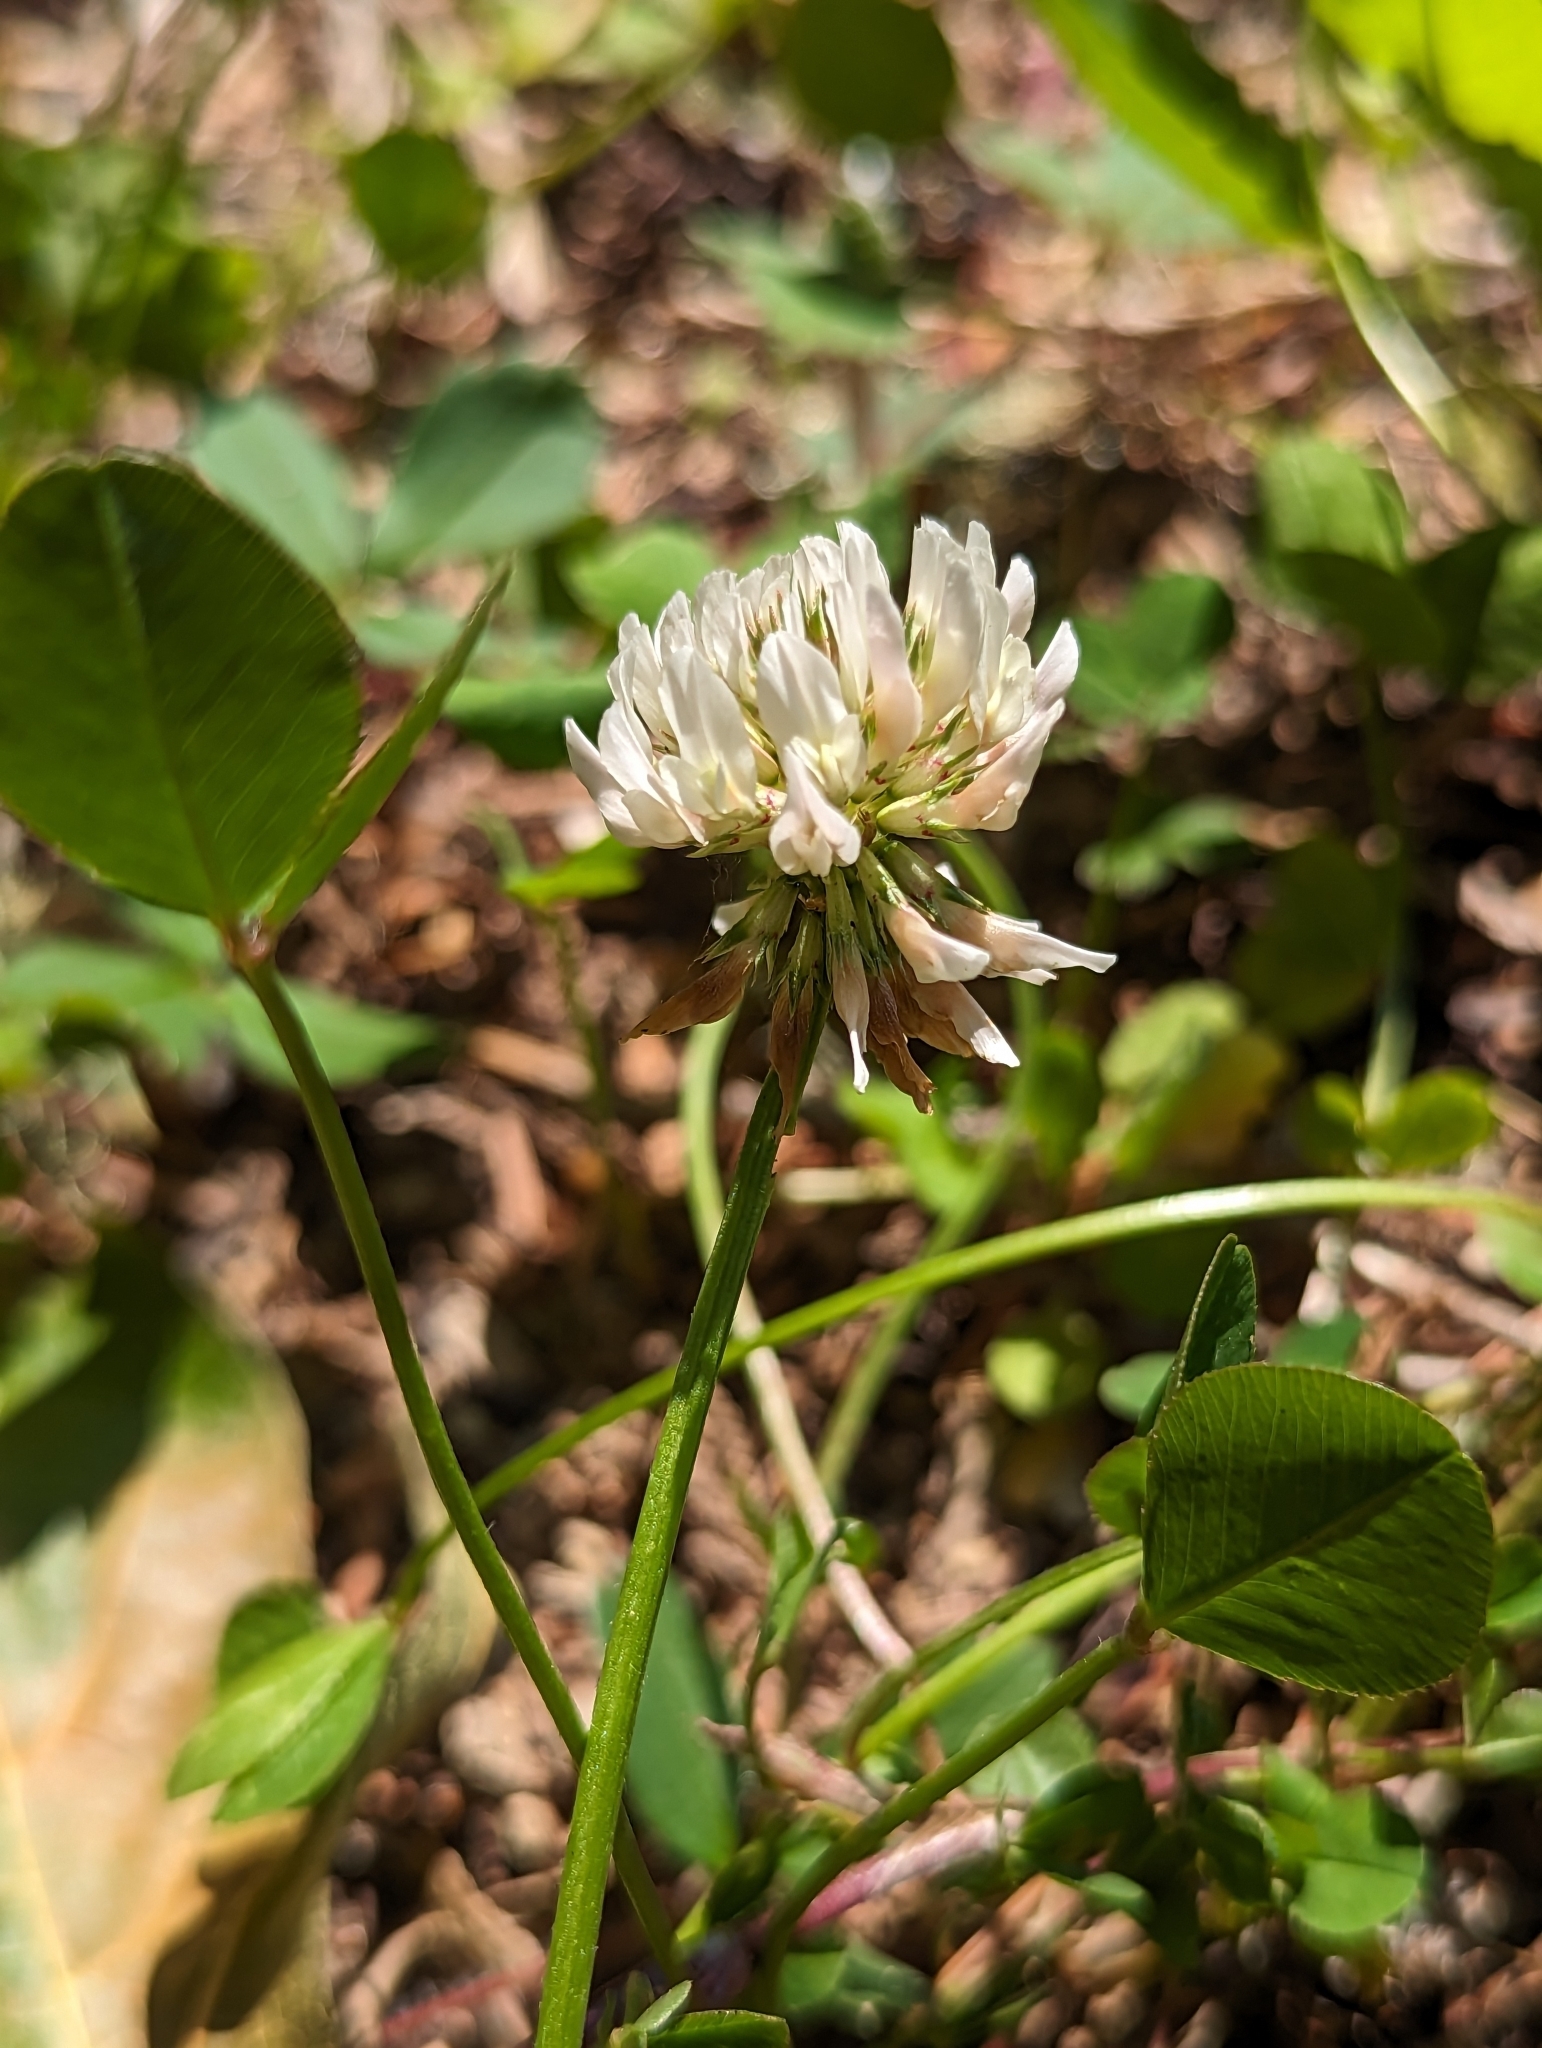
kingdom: Plantae
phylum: Tracheophyta
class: Magnoliopsida
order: Fabales
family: Fabaceae
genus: Trifolium
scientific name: Trifolium repens
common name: White clover
